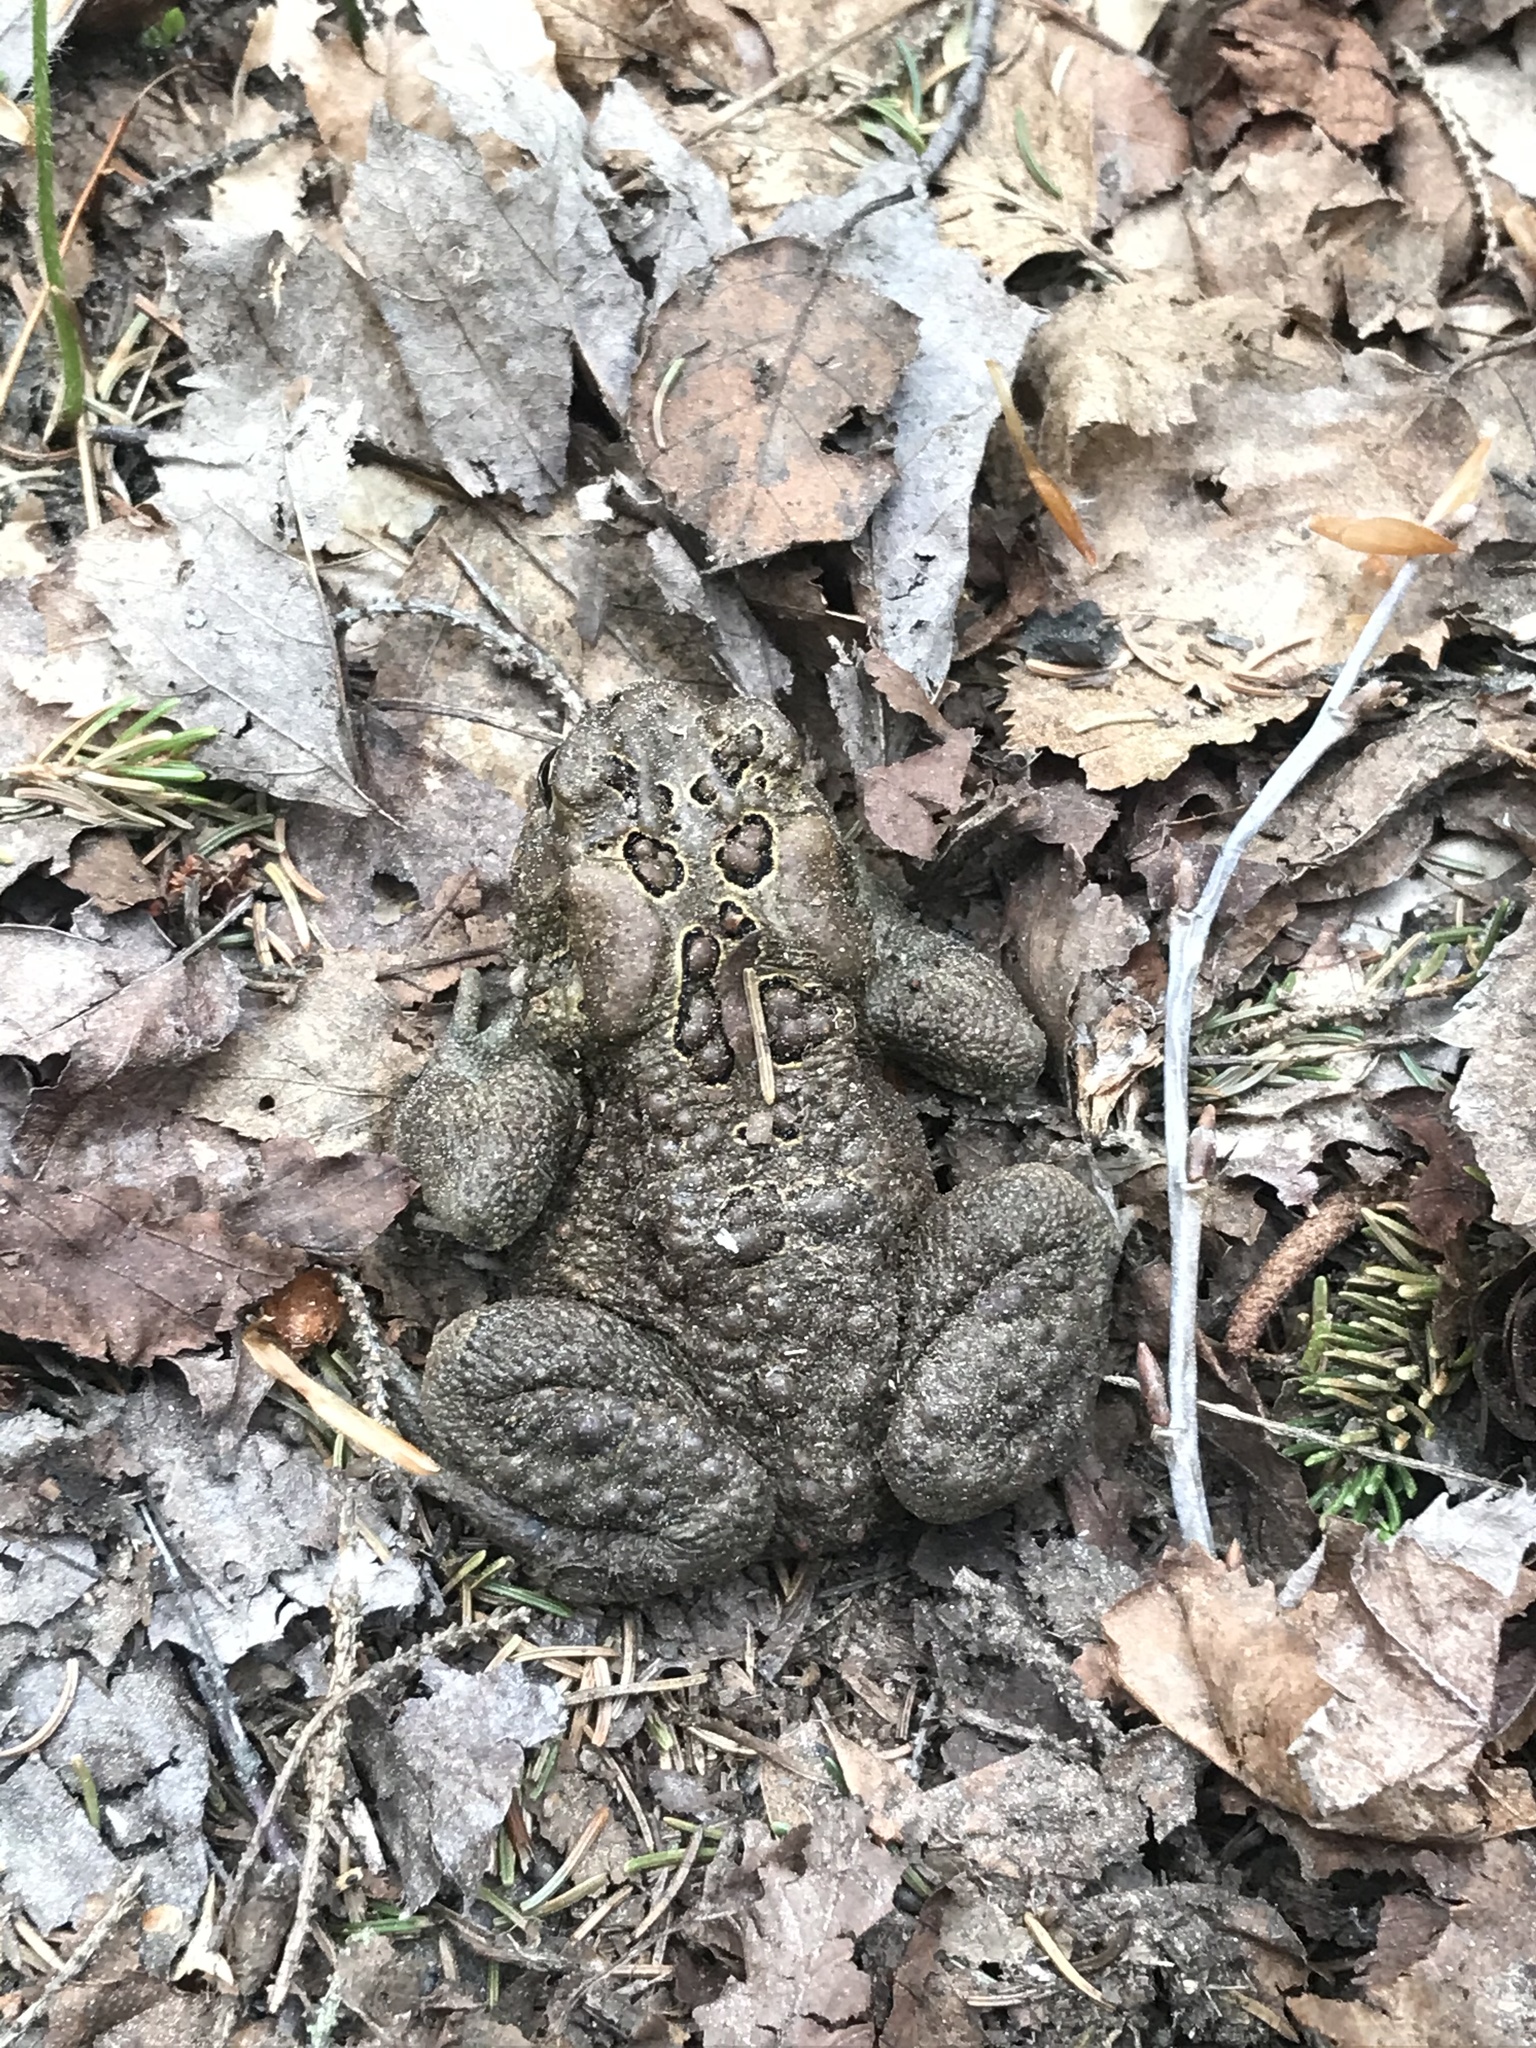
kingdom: Animalia
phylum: Chordata
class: Amphibia
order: Anura
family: Bufonidae
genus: Anaxyrus
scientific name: Anaxyrus americanus
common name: American toad
